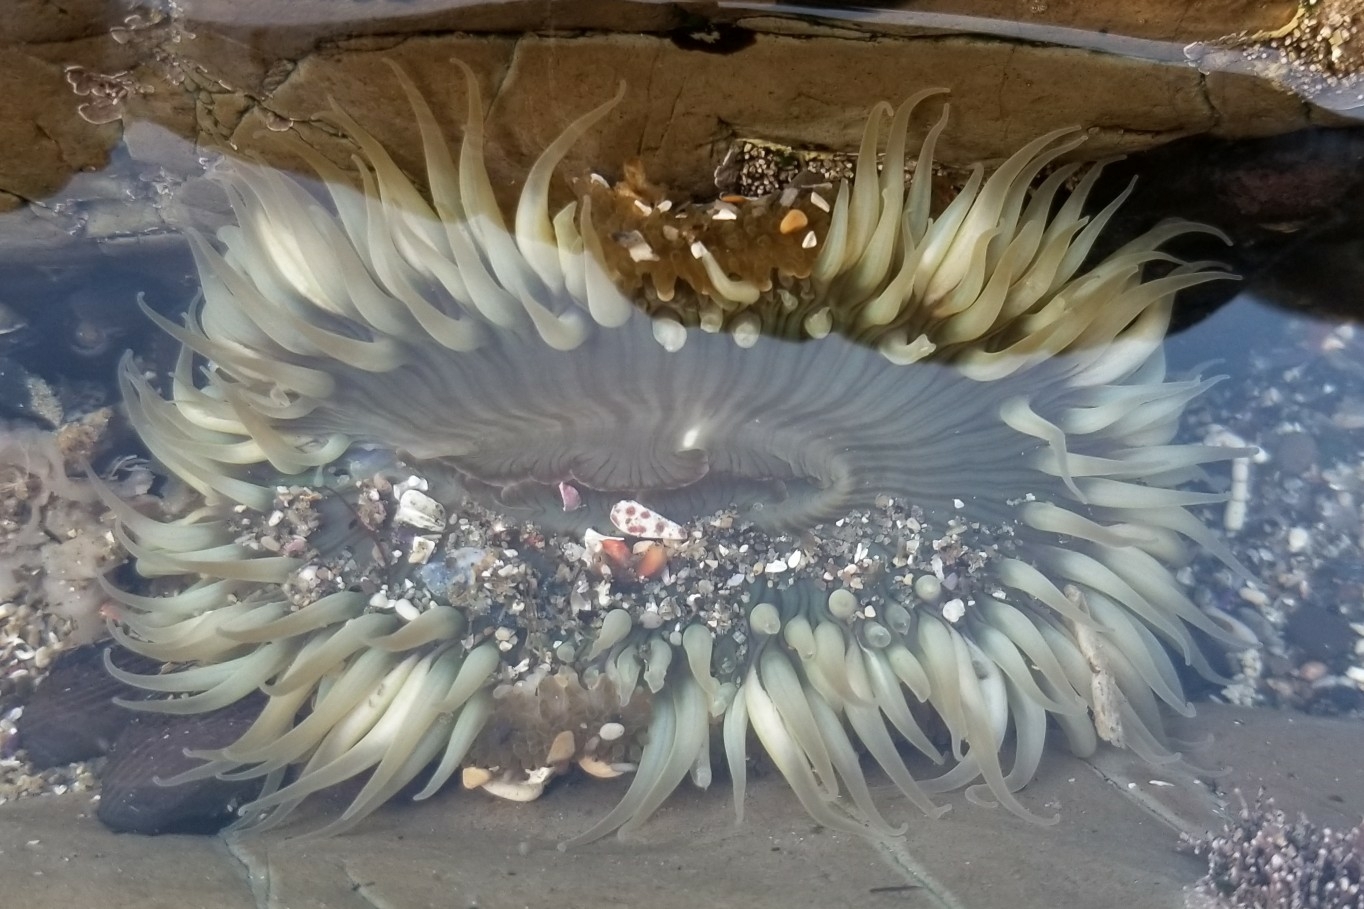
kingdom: Animalia
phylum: Cnidaria
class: Anthozoa
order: Actiniaria
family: Actiniidae
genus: Anthopleura
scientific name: Anthopleura sola
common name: Sun anemone
